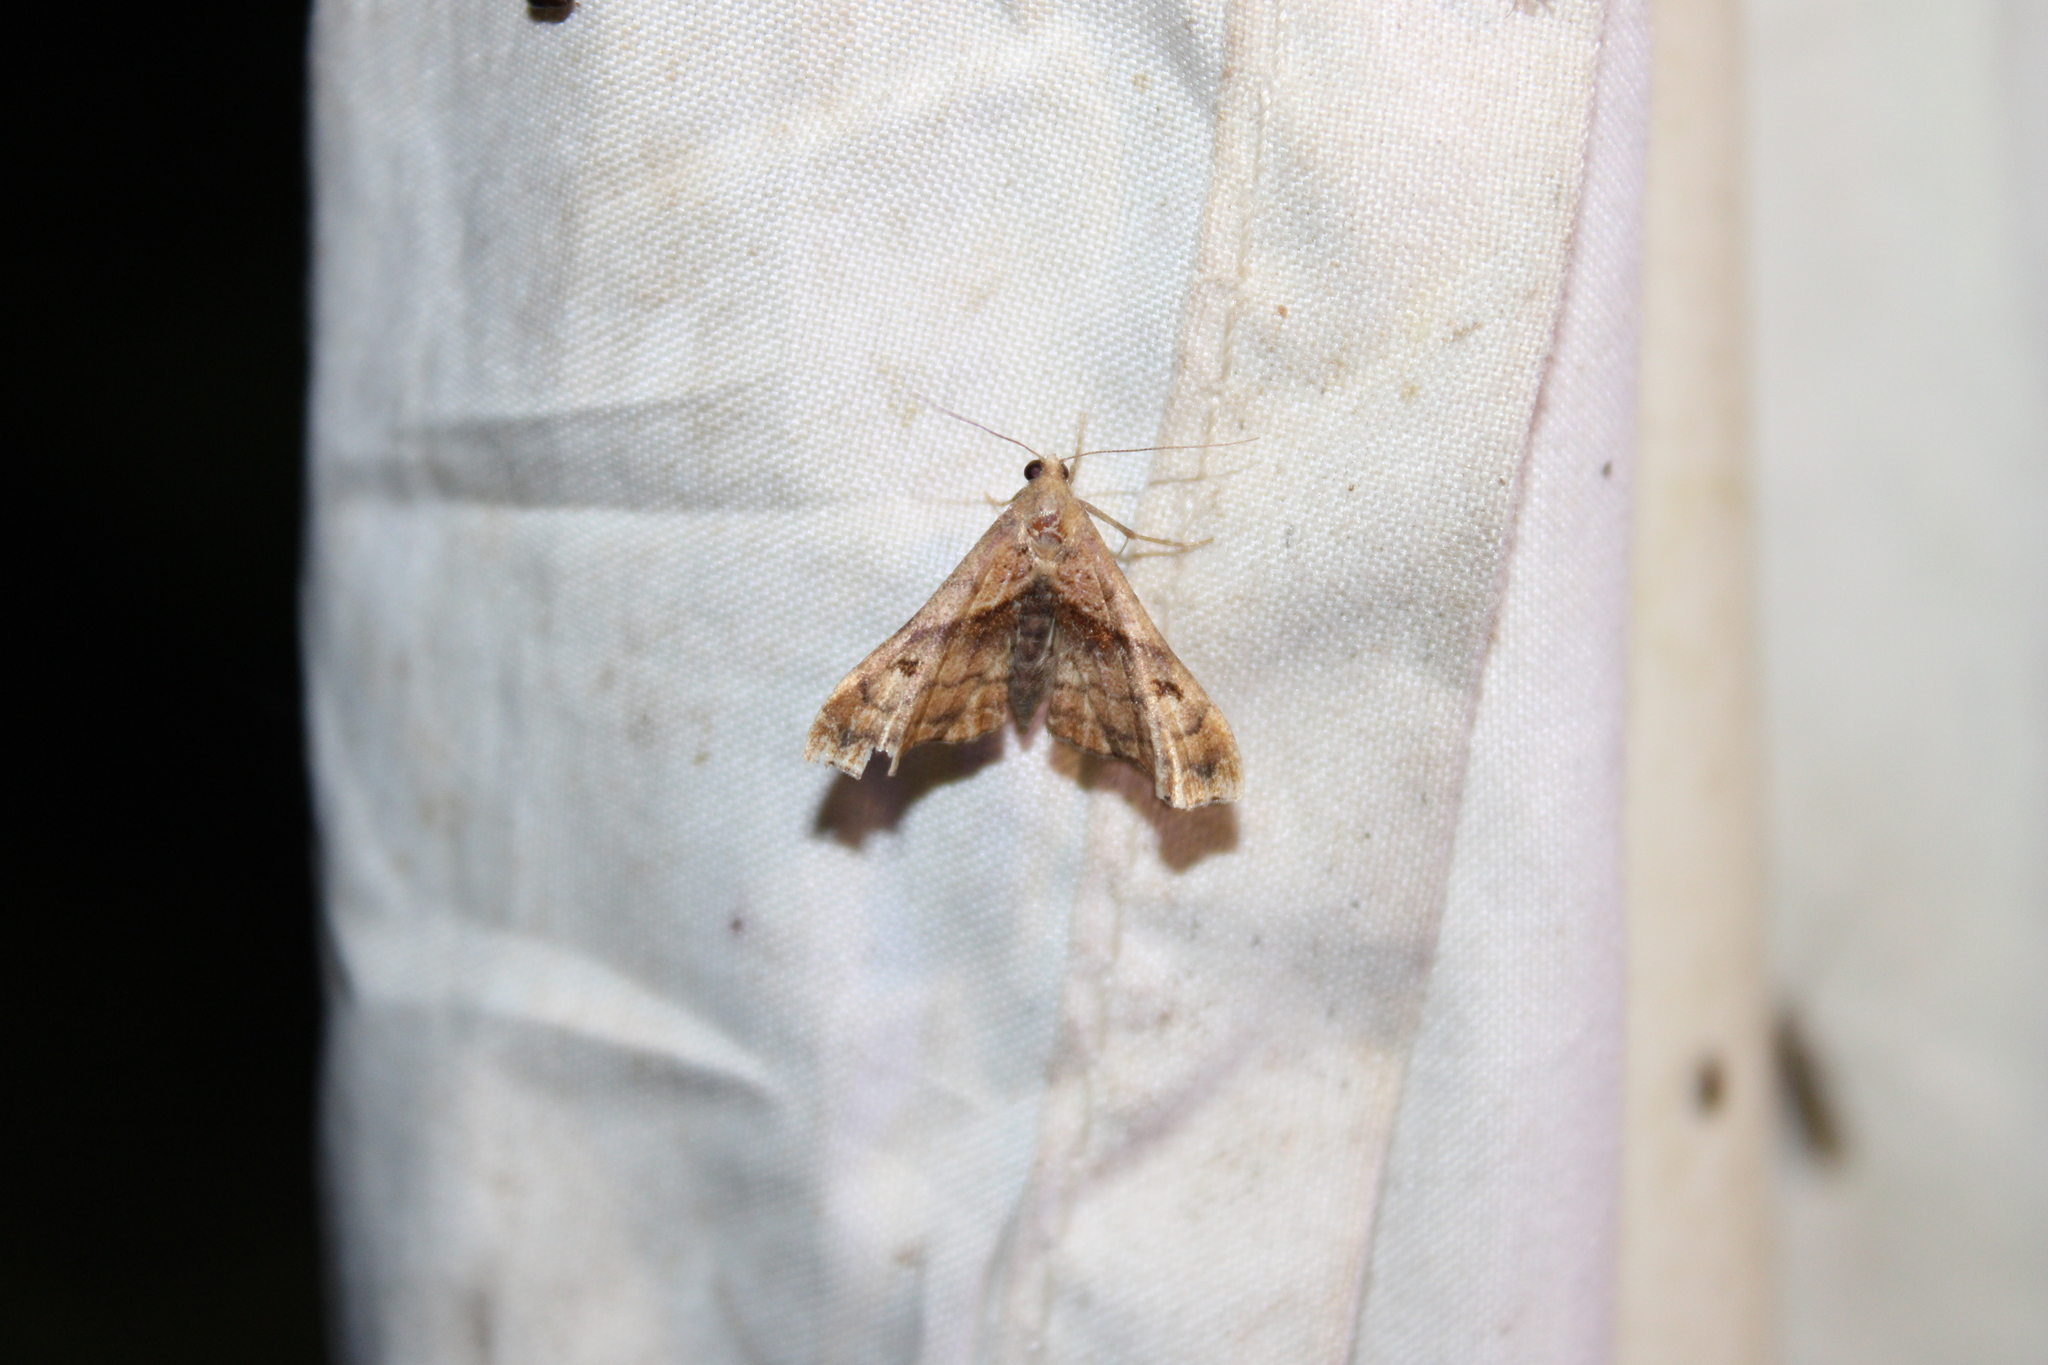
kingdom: Animalia
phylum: Arthropoda
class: Insecta
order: Lepidoptera
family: Erebidae
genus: Palthis
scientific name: Palthis angulalis
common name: Dark-spotted palthis moth
